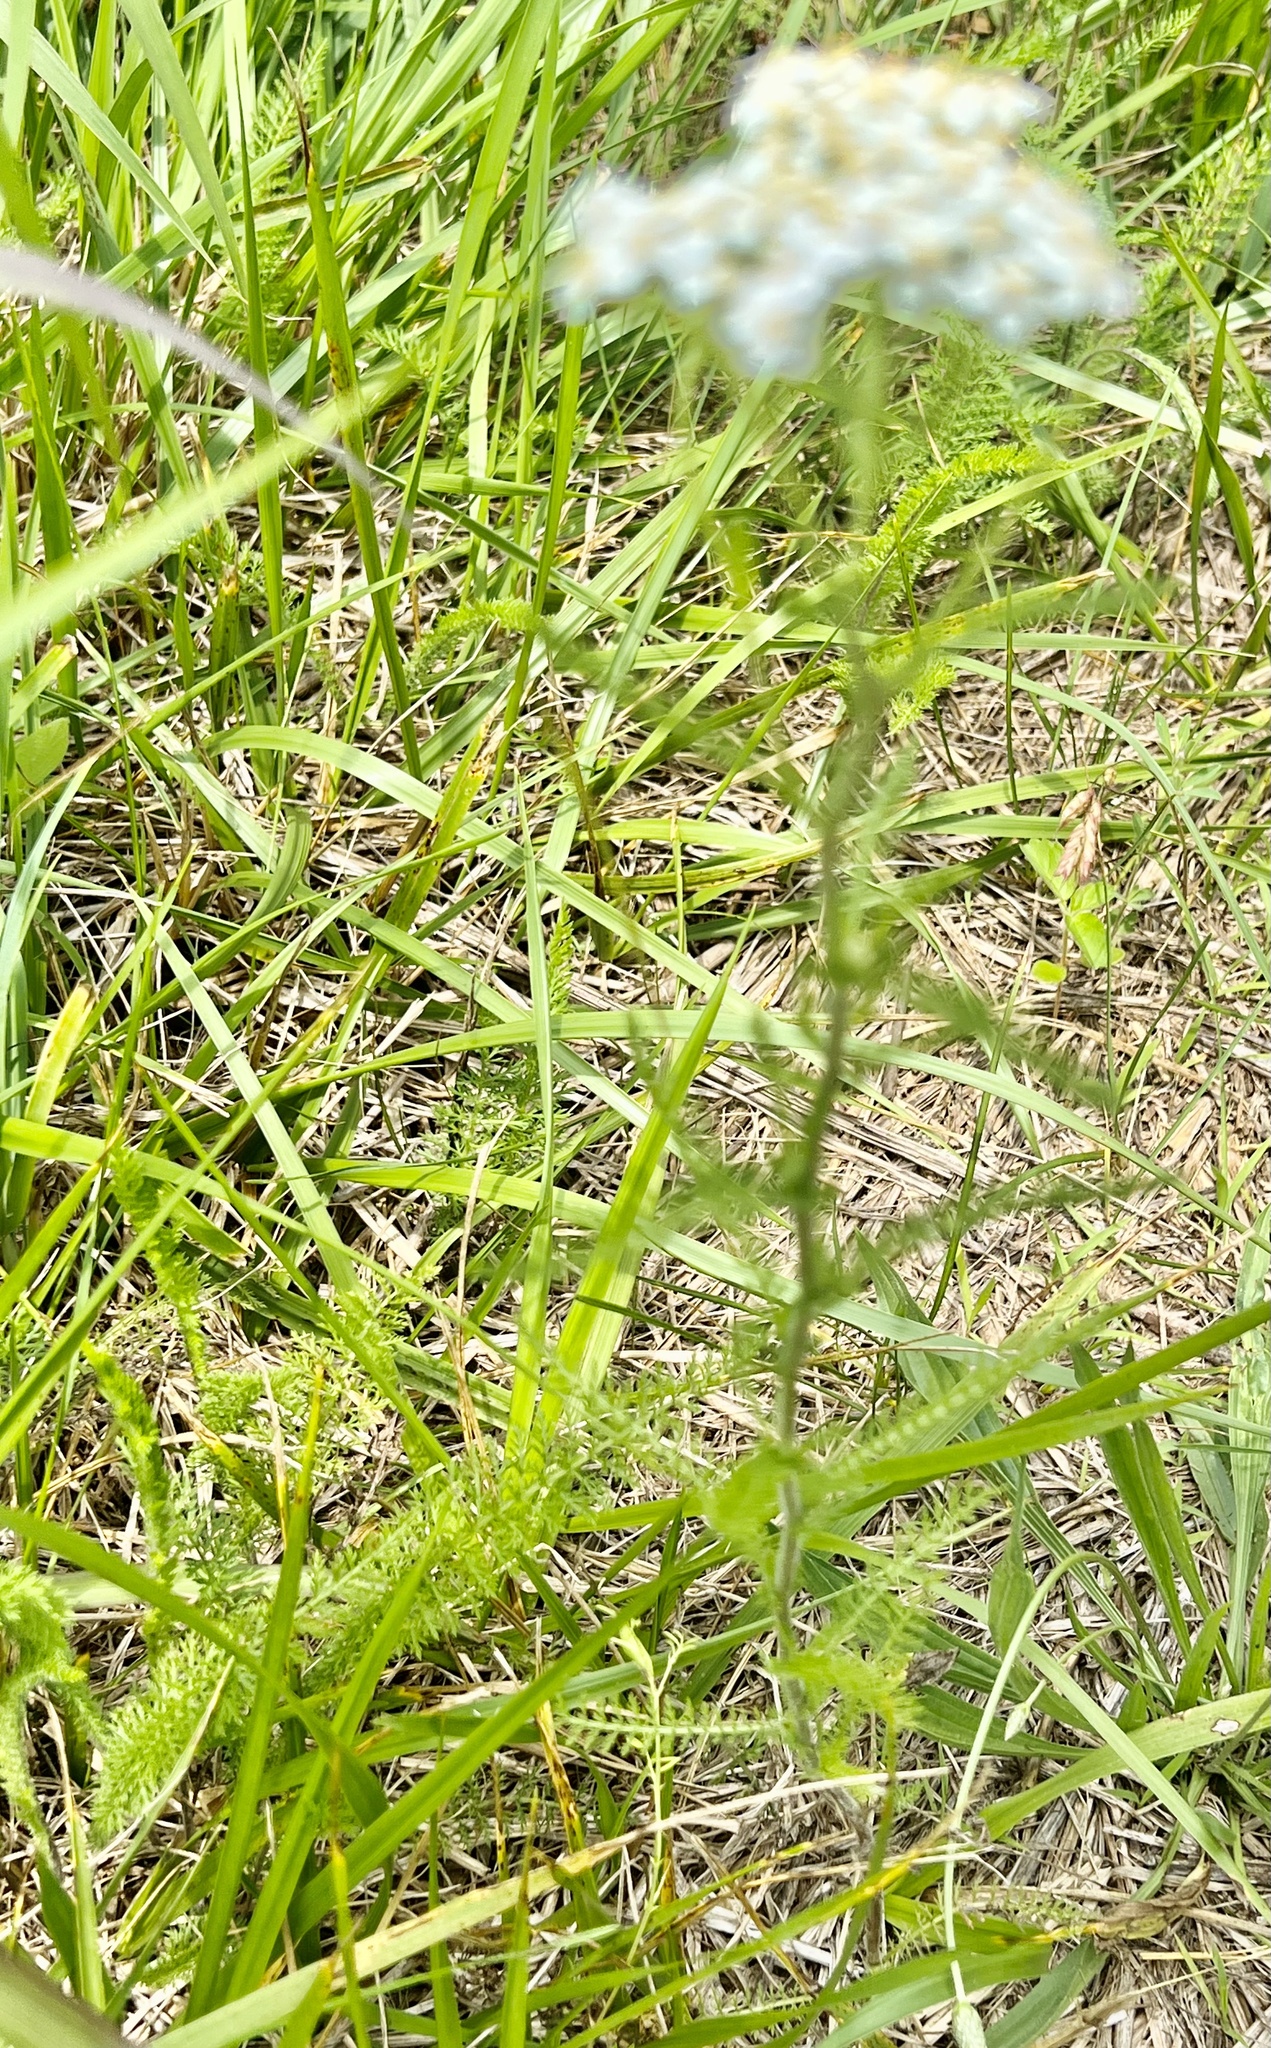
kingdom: Plantae
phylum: Tracheophyta
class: Magnoliopsida
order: Asterales
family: Asteraceae
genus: Achillea
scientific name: Achillea millefolium
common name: Yarrow
